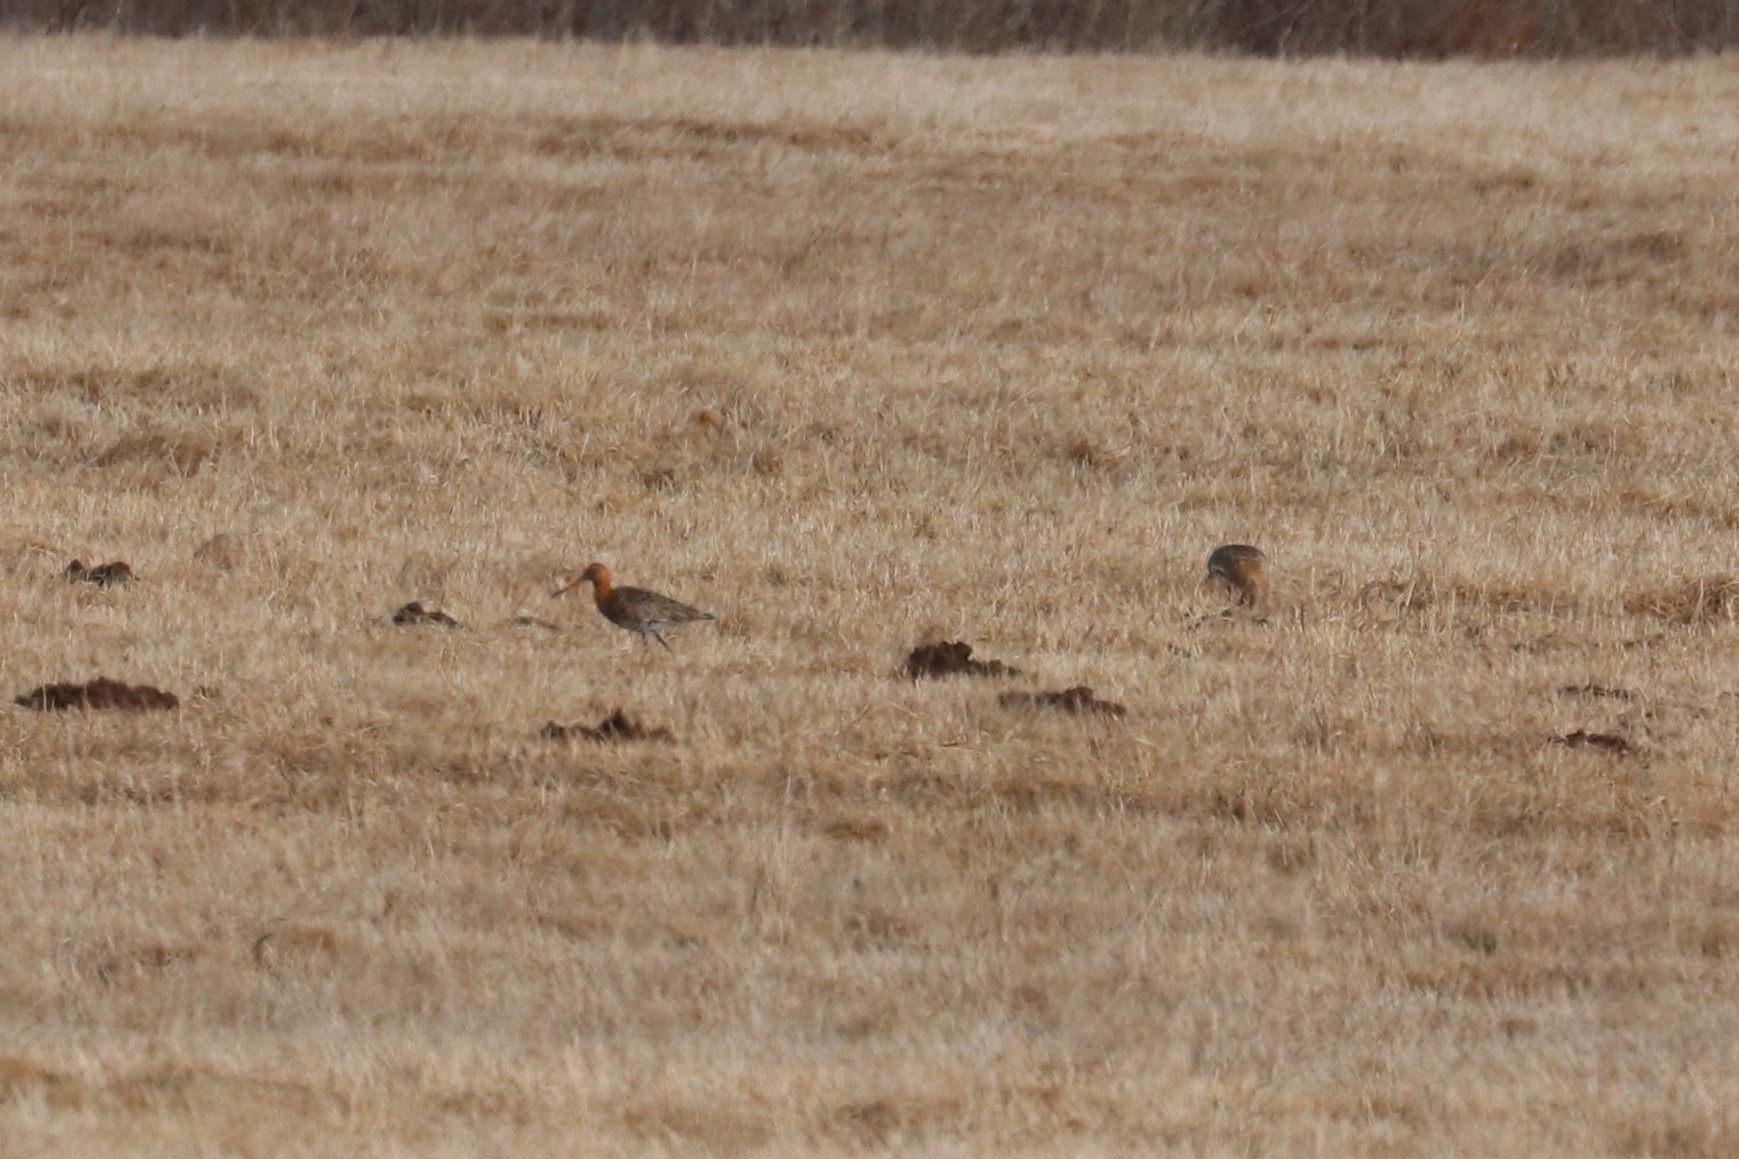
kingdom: Animalia
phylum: Chordata
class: Aves
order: Charadriiformes
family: Scolopacidae
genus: Limosa
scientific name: Limosa limosa
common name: Black-tailed godwit
